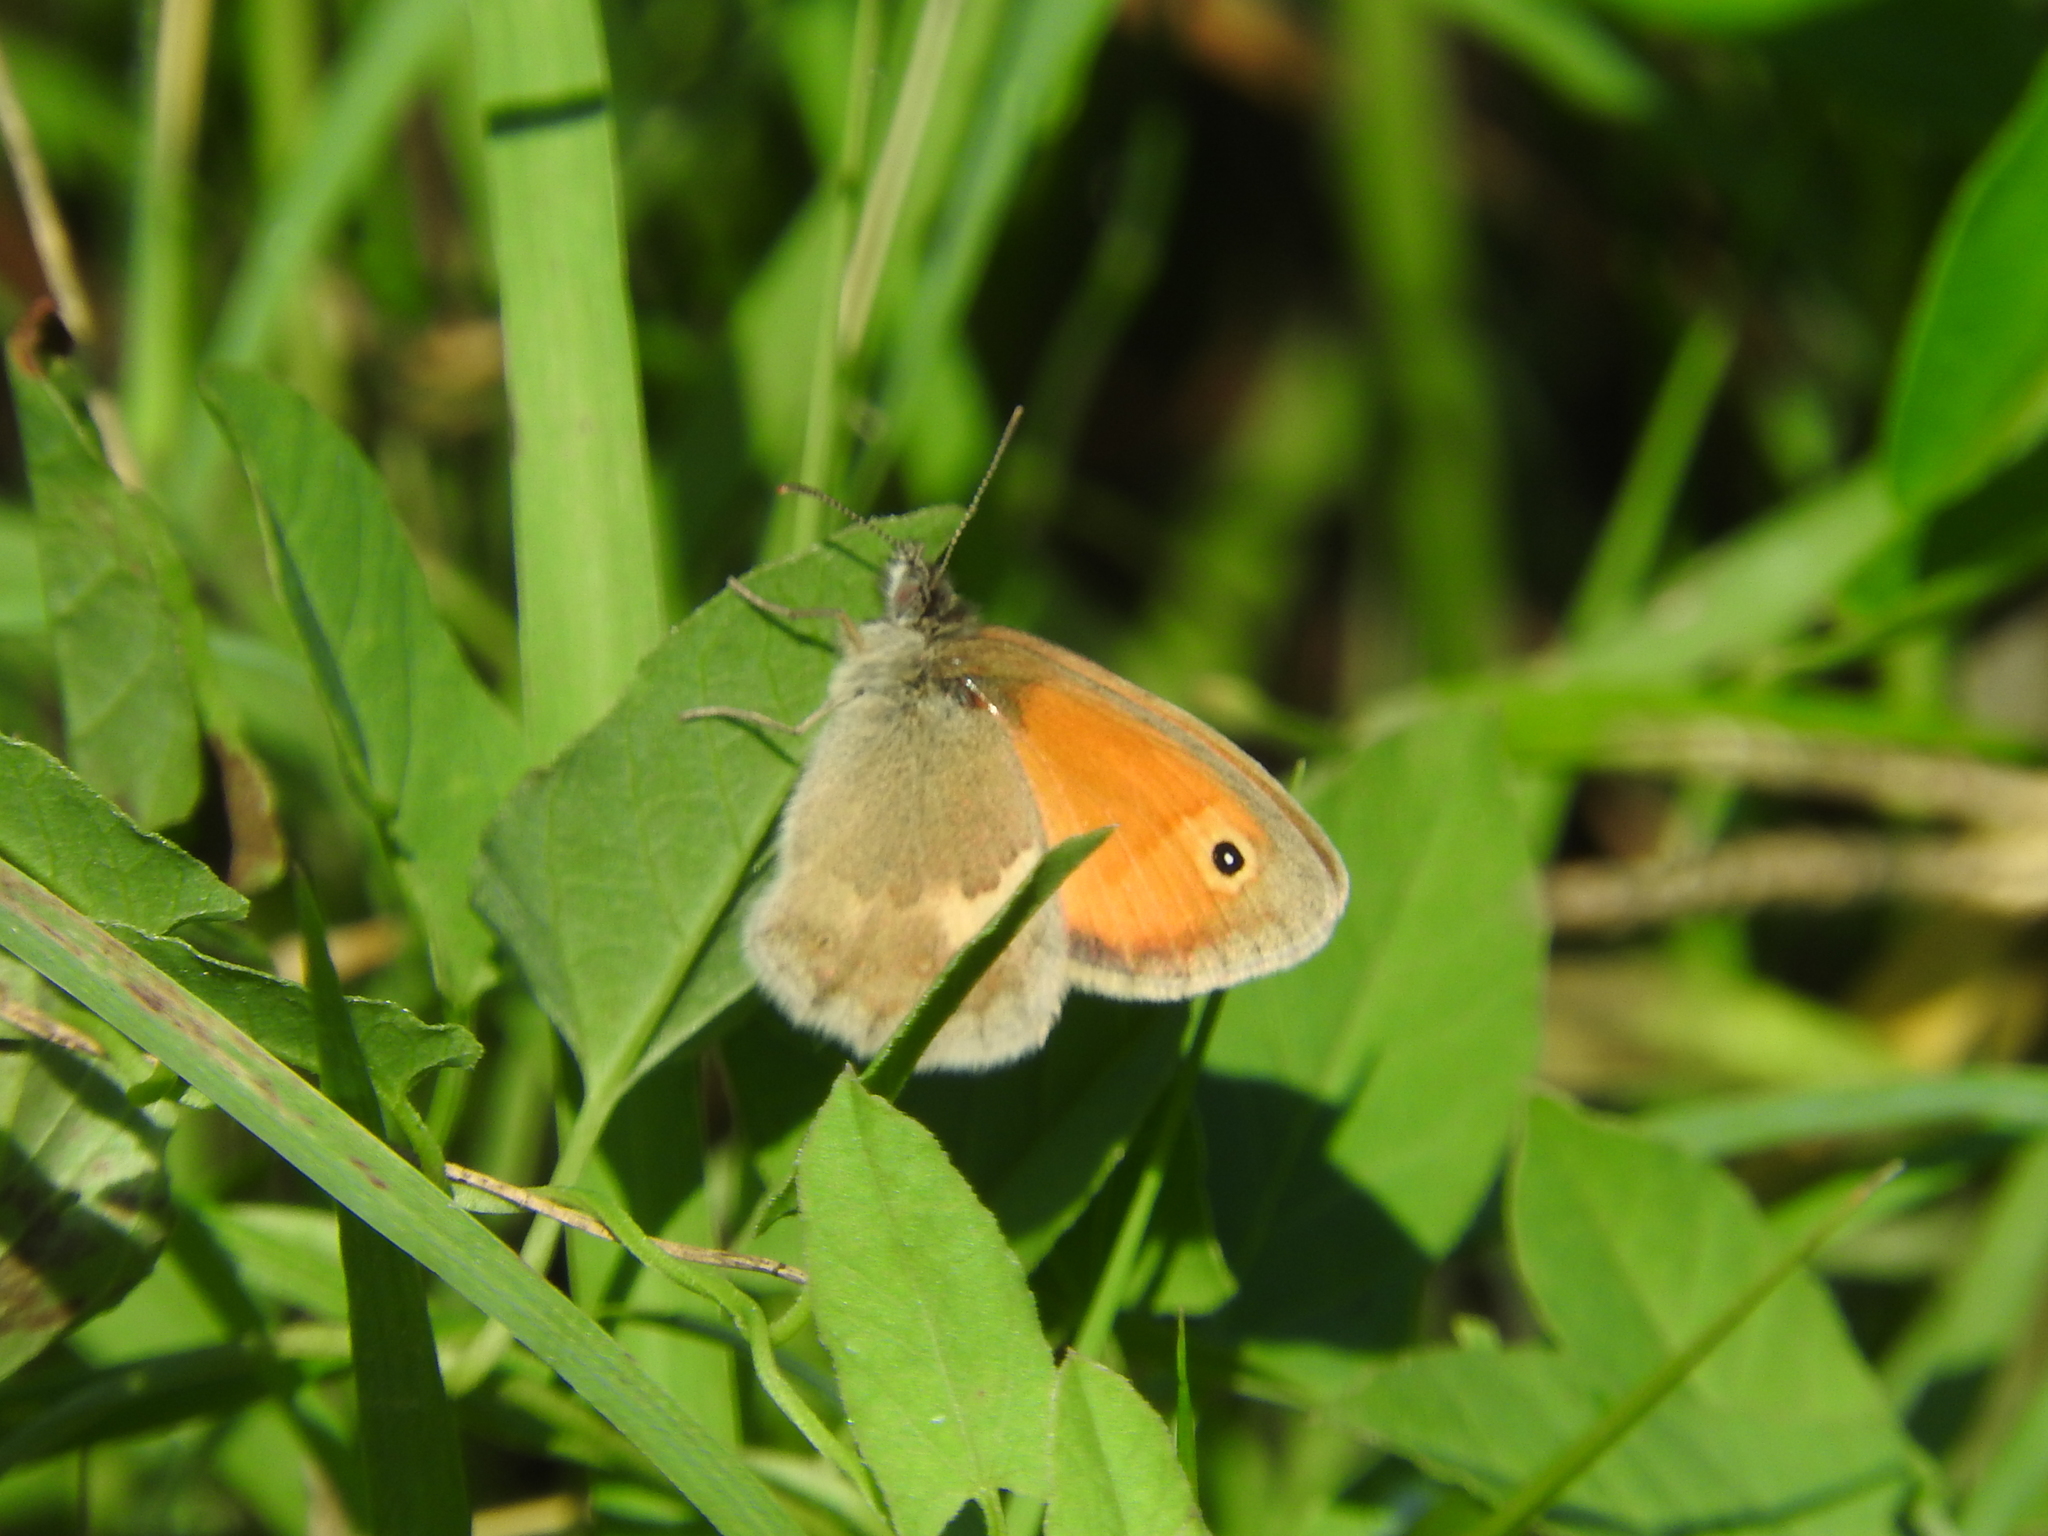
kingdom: Animalia
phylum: Arthropoda
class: Insecta
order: Lepidoptera
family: Nymphalidae
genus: Coenonympha
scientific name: Coenonympha pamphilus
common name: Small heath
